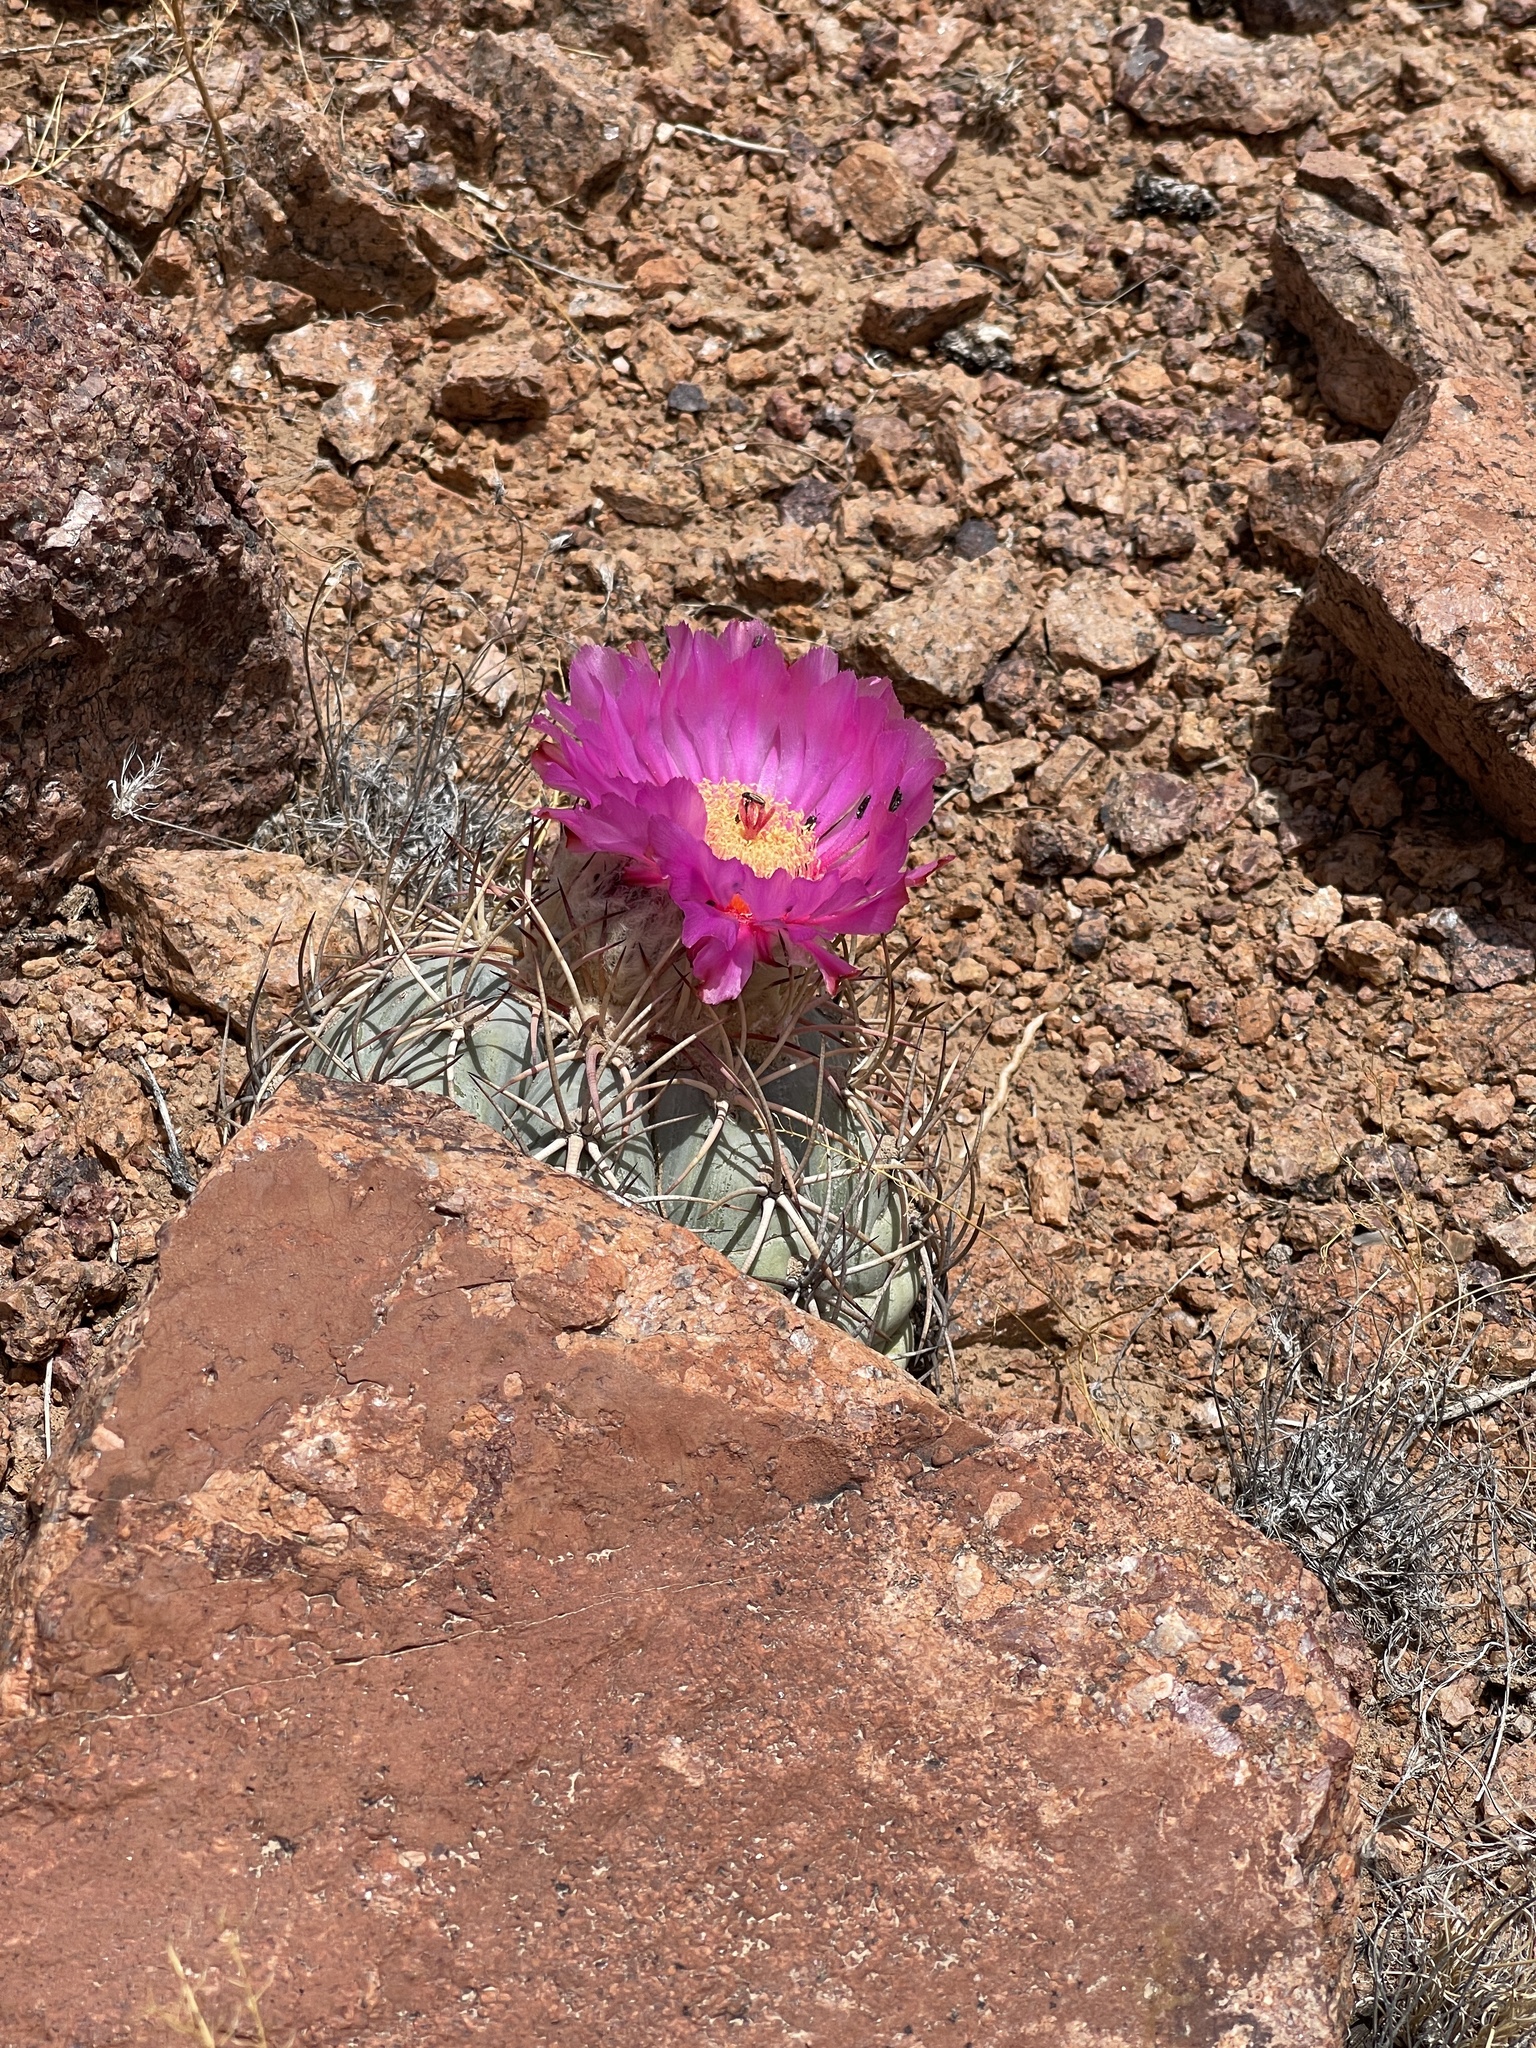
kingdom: Plantae
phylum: Tracheophyta
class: Magnoliopsida
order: Caryophyllales
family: Cactaceae
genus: Echinocactus
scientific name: Echinocactus horizonthalonius
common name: Devilshead
